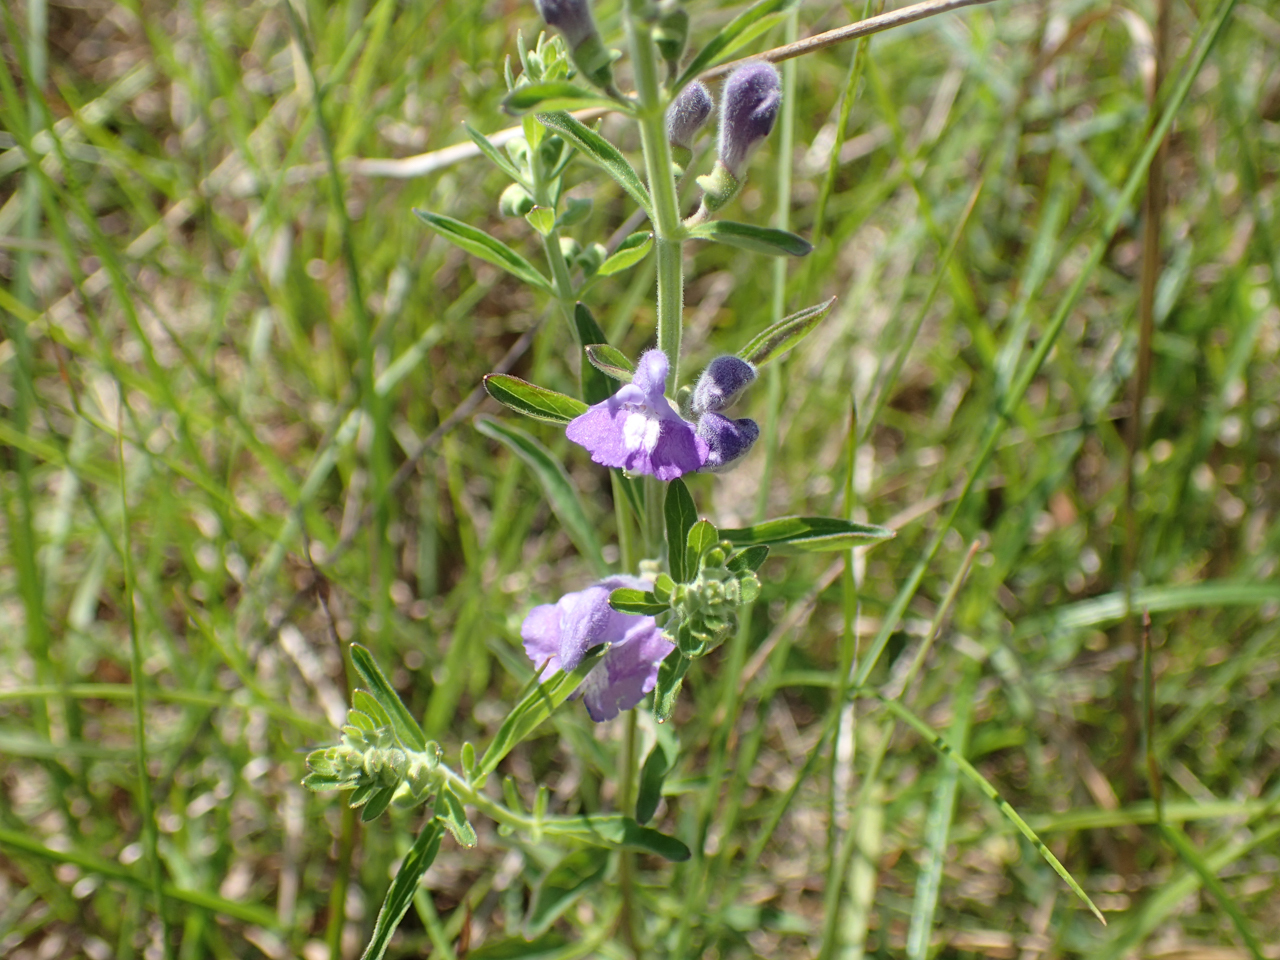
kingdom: Plantae
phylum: Tracheophyta
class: Magnoliopsida
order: Lamiales
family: Lamiaceae
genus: Scutellaria
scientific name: Scutellaria integrifolia
